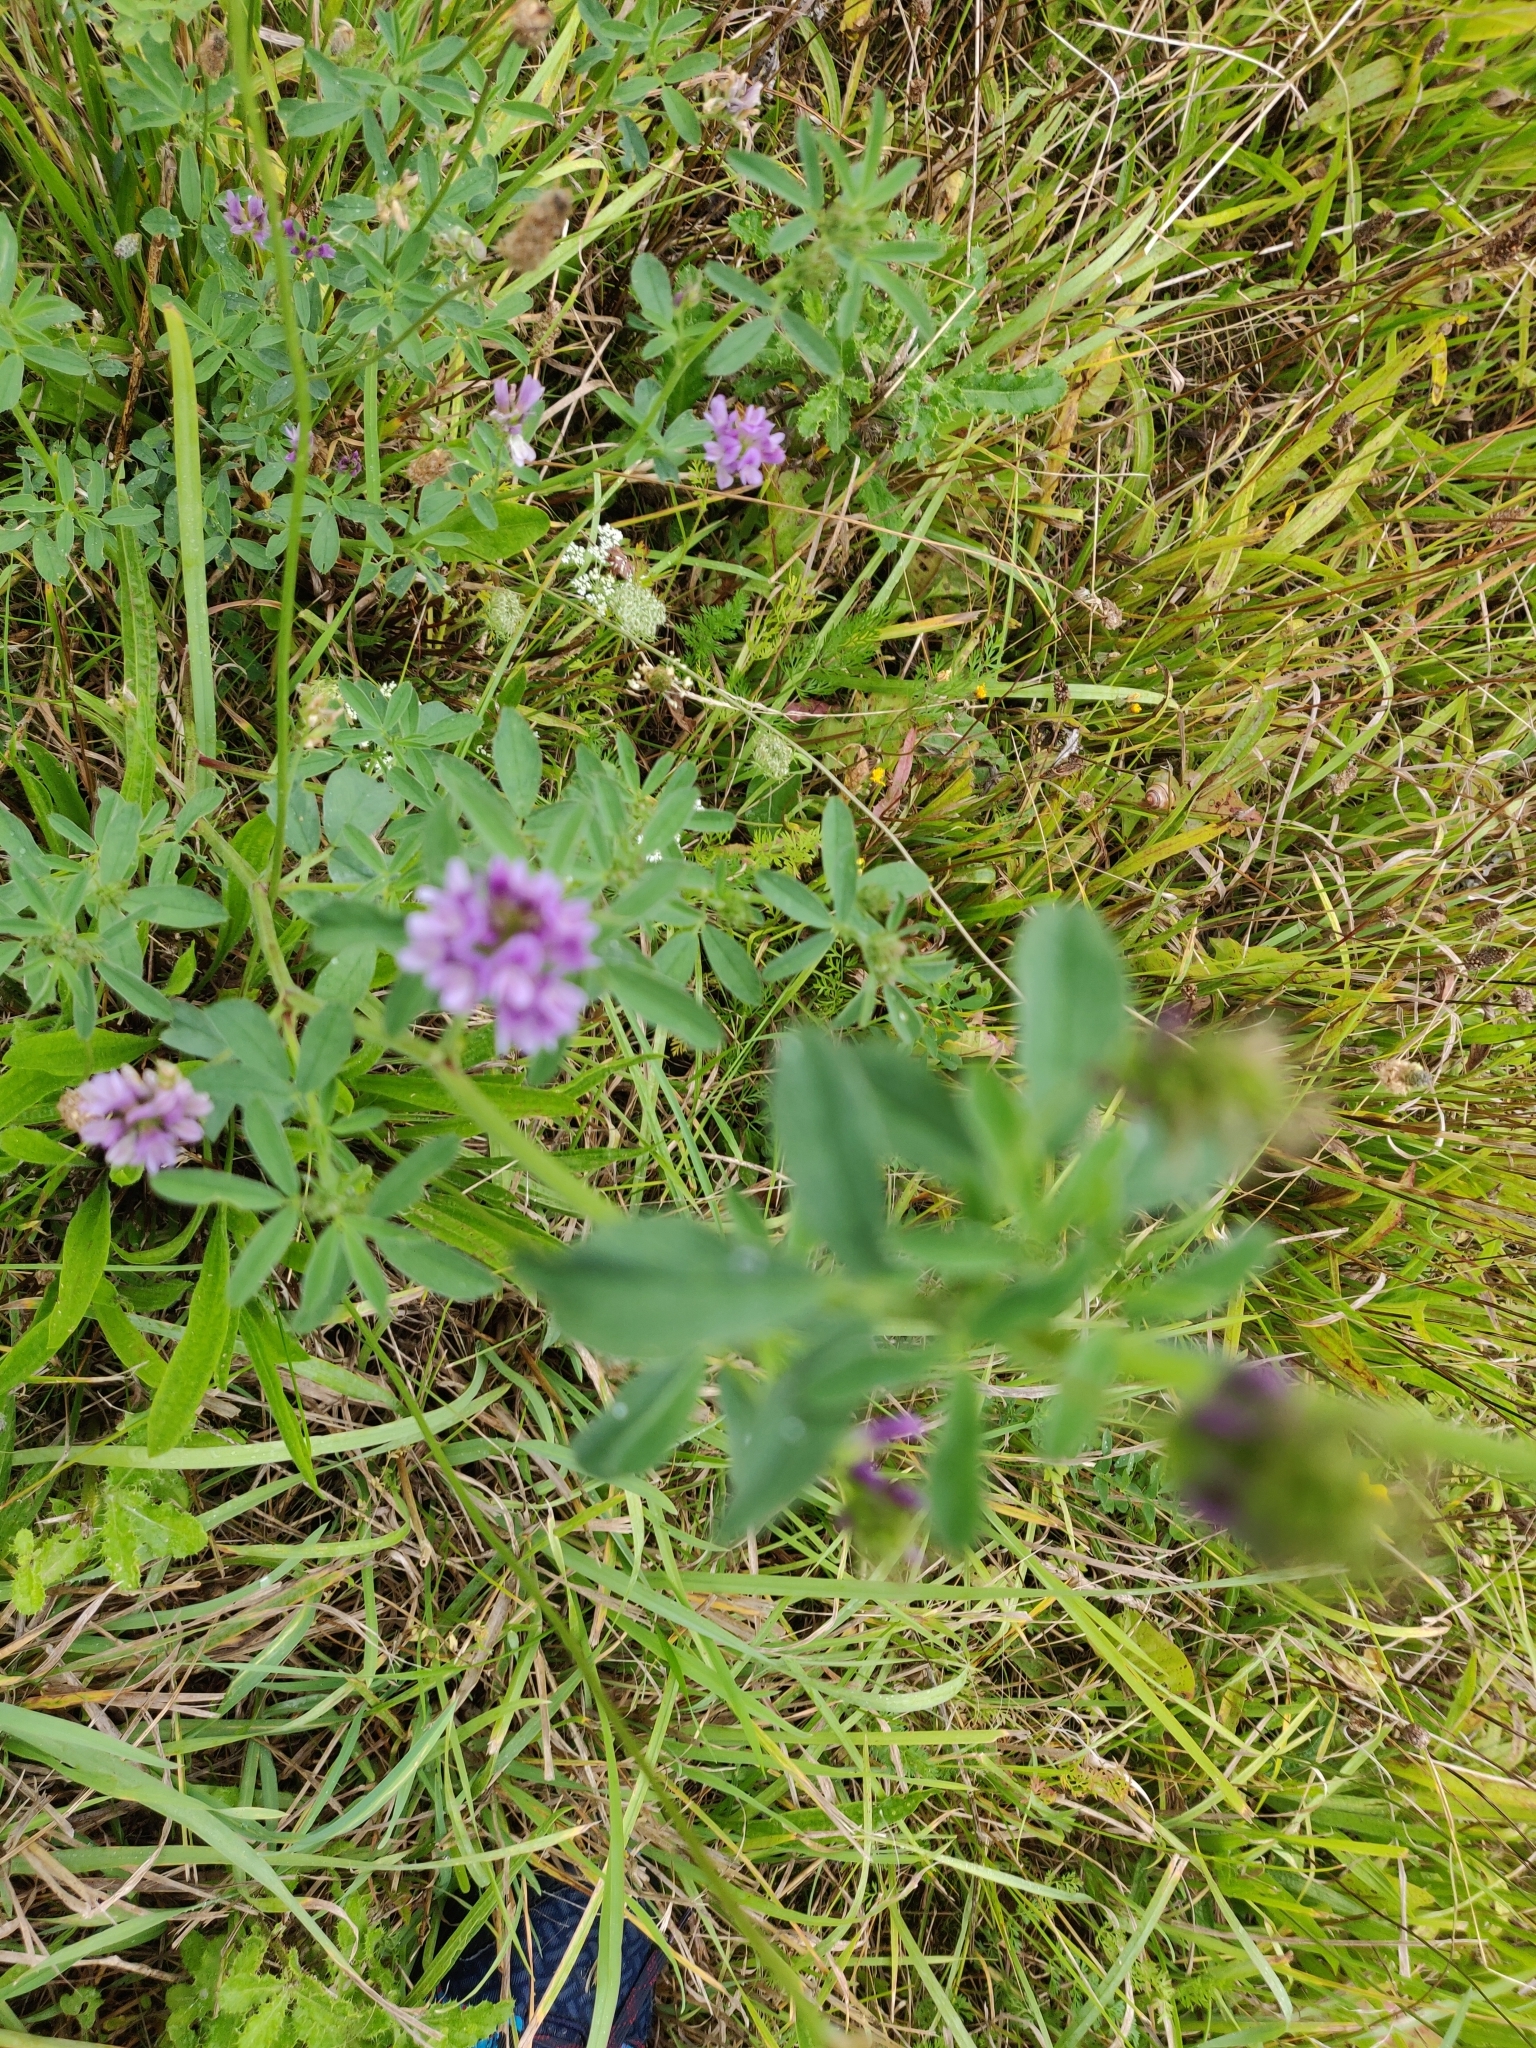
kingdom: Plantae
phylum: Tracheophyta
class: Magnoliopsida
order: Fabales
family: Fabaceae
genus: Medicago
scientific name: Medicago sativa
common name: Alfalfa
